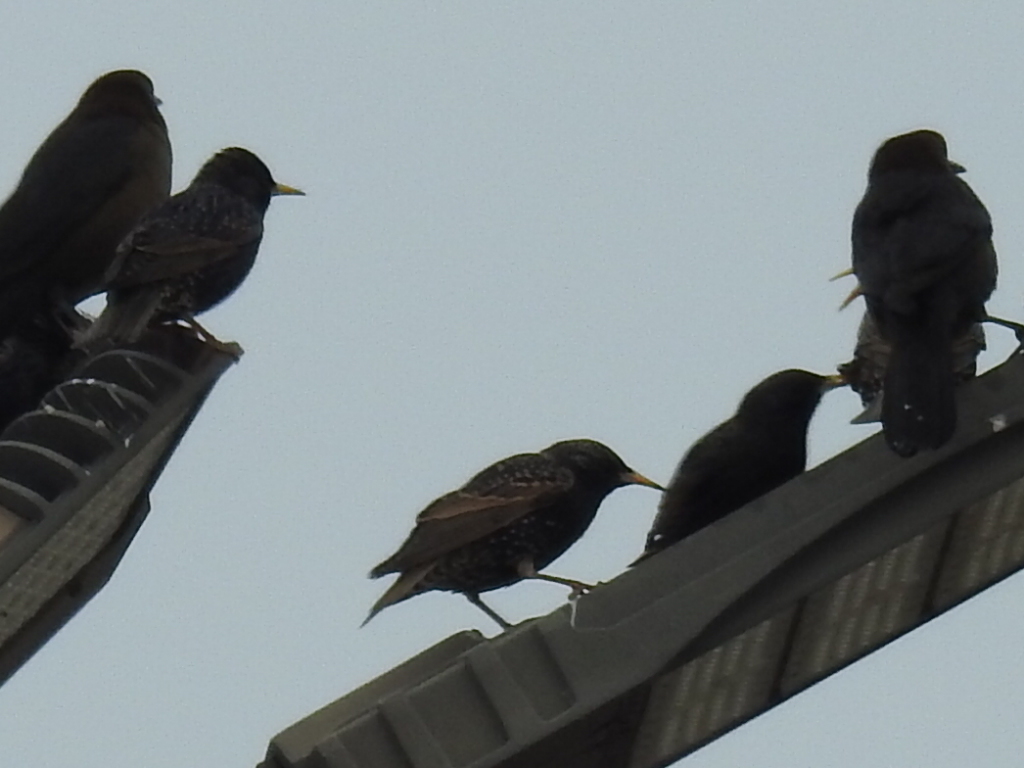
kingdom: Animalia
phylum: Chordata
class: Aves
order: Passeriformes
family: Sturnidae
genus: Sturnus
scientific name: Sturnus vulgaris
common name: Common starling
